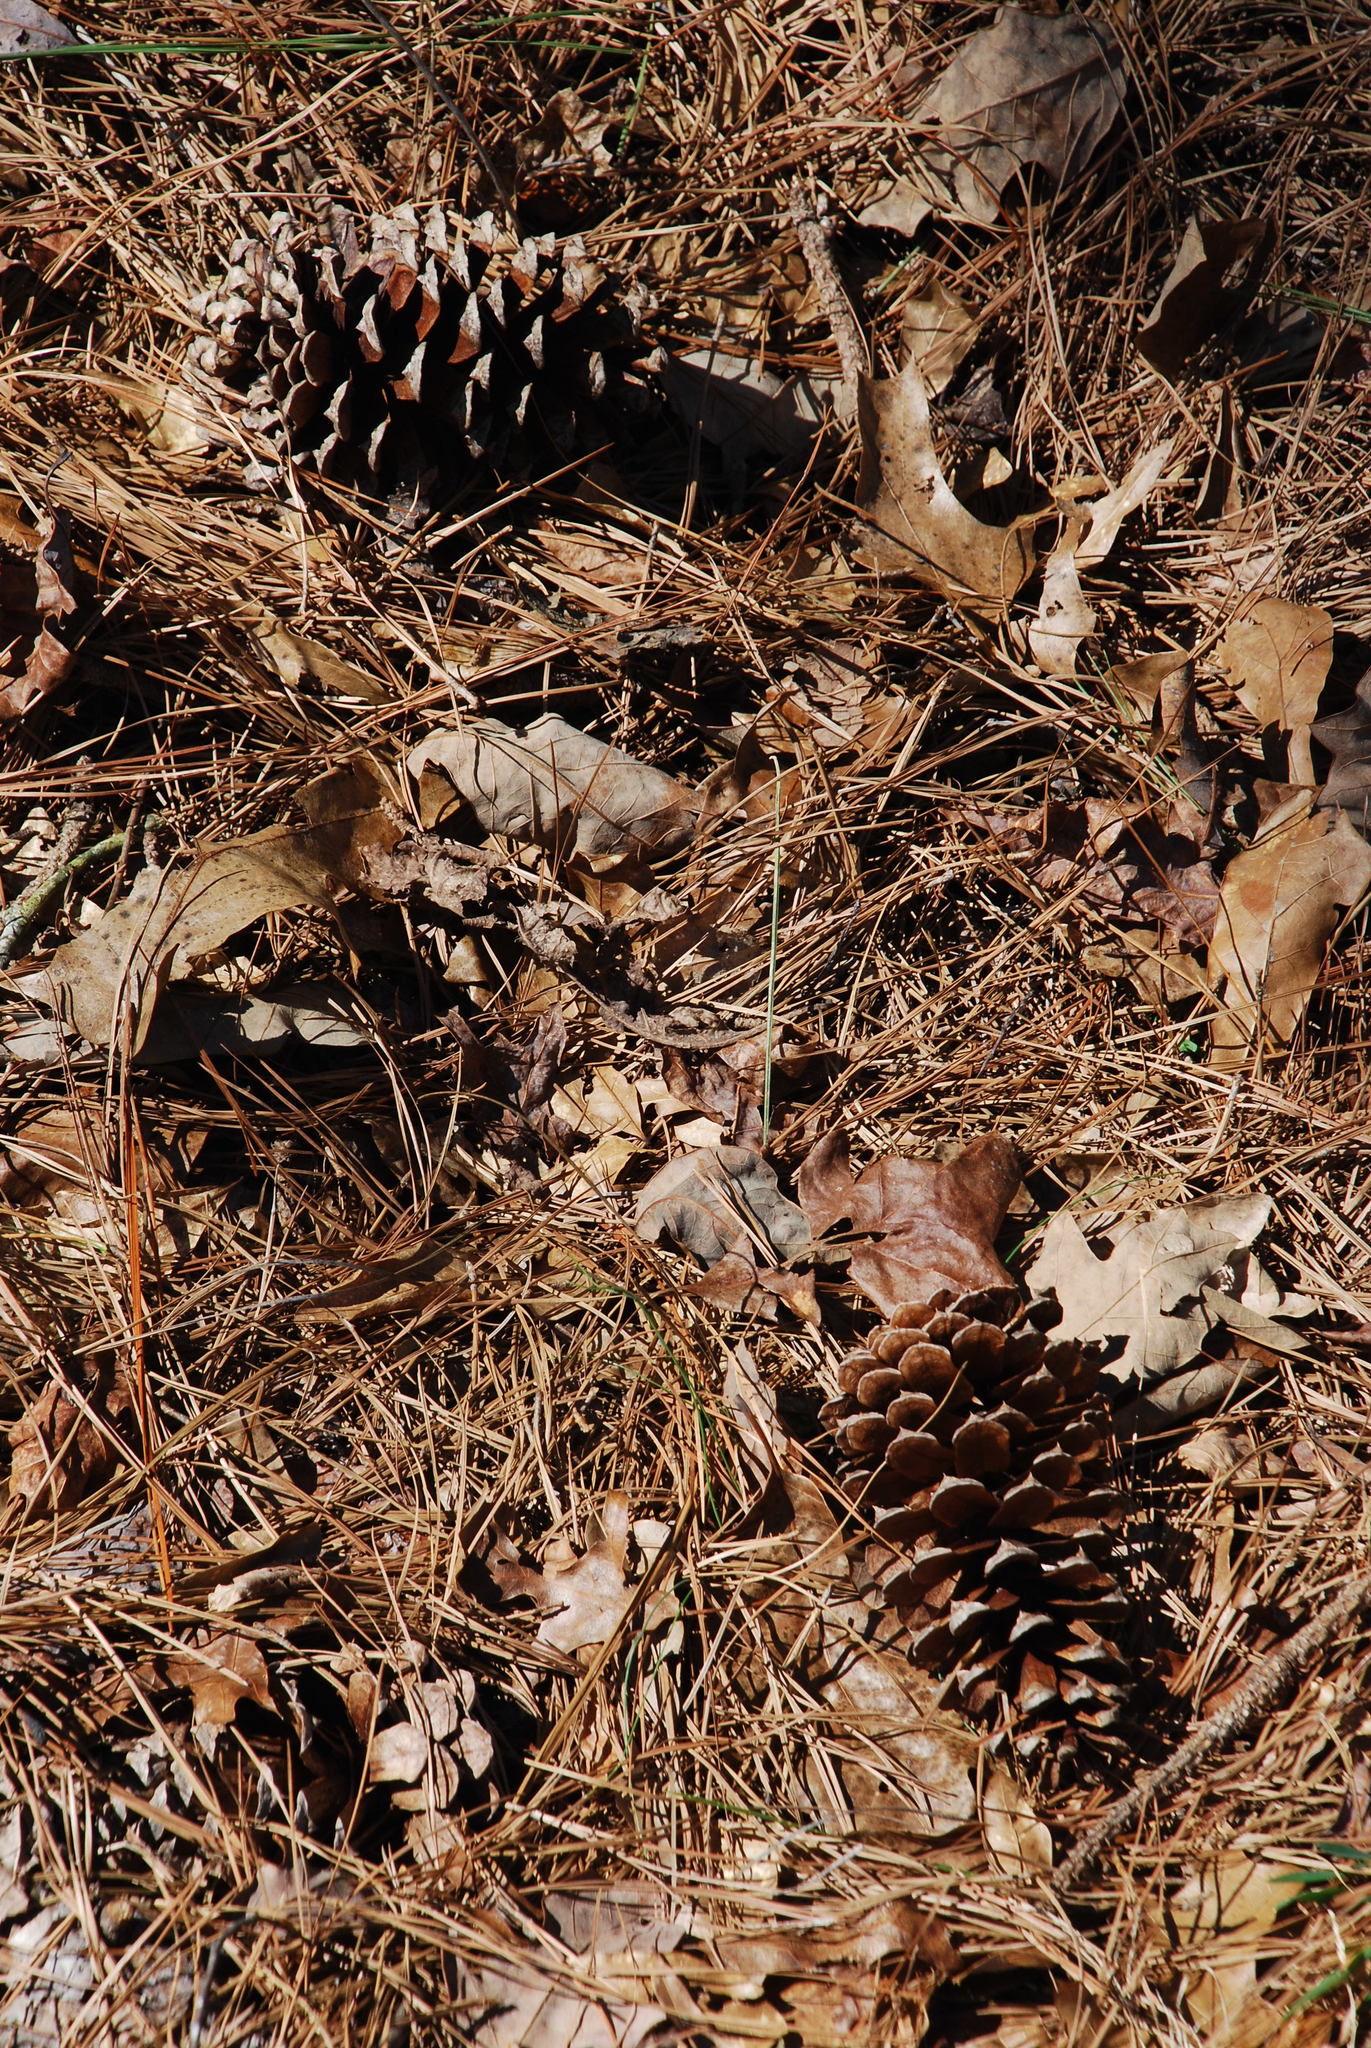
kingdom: Plantae
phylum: Tracheophyta
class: Pinopsida
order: Pinales
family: Pinaceae
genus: Pinus
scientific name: Pinus sondereggeri
